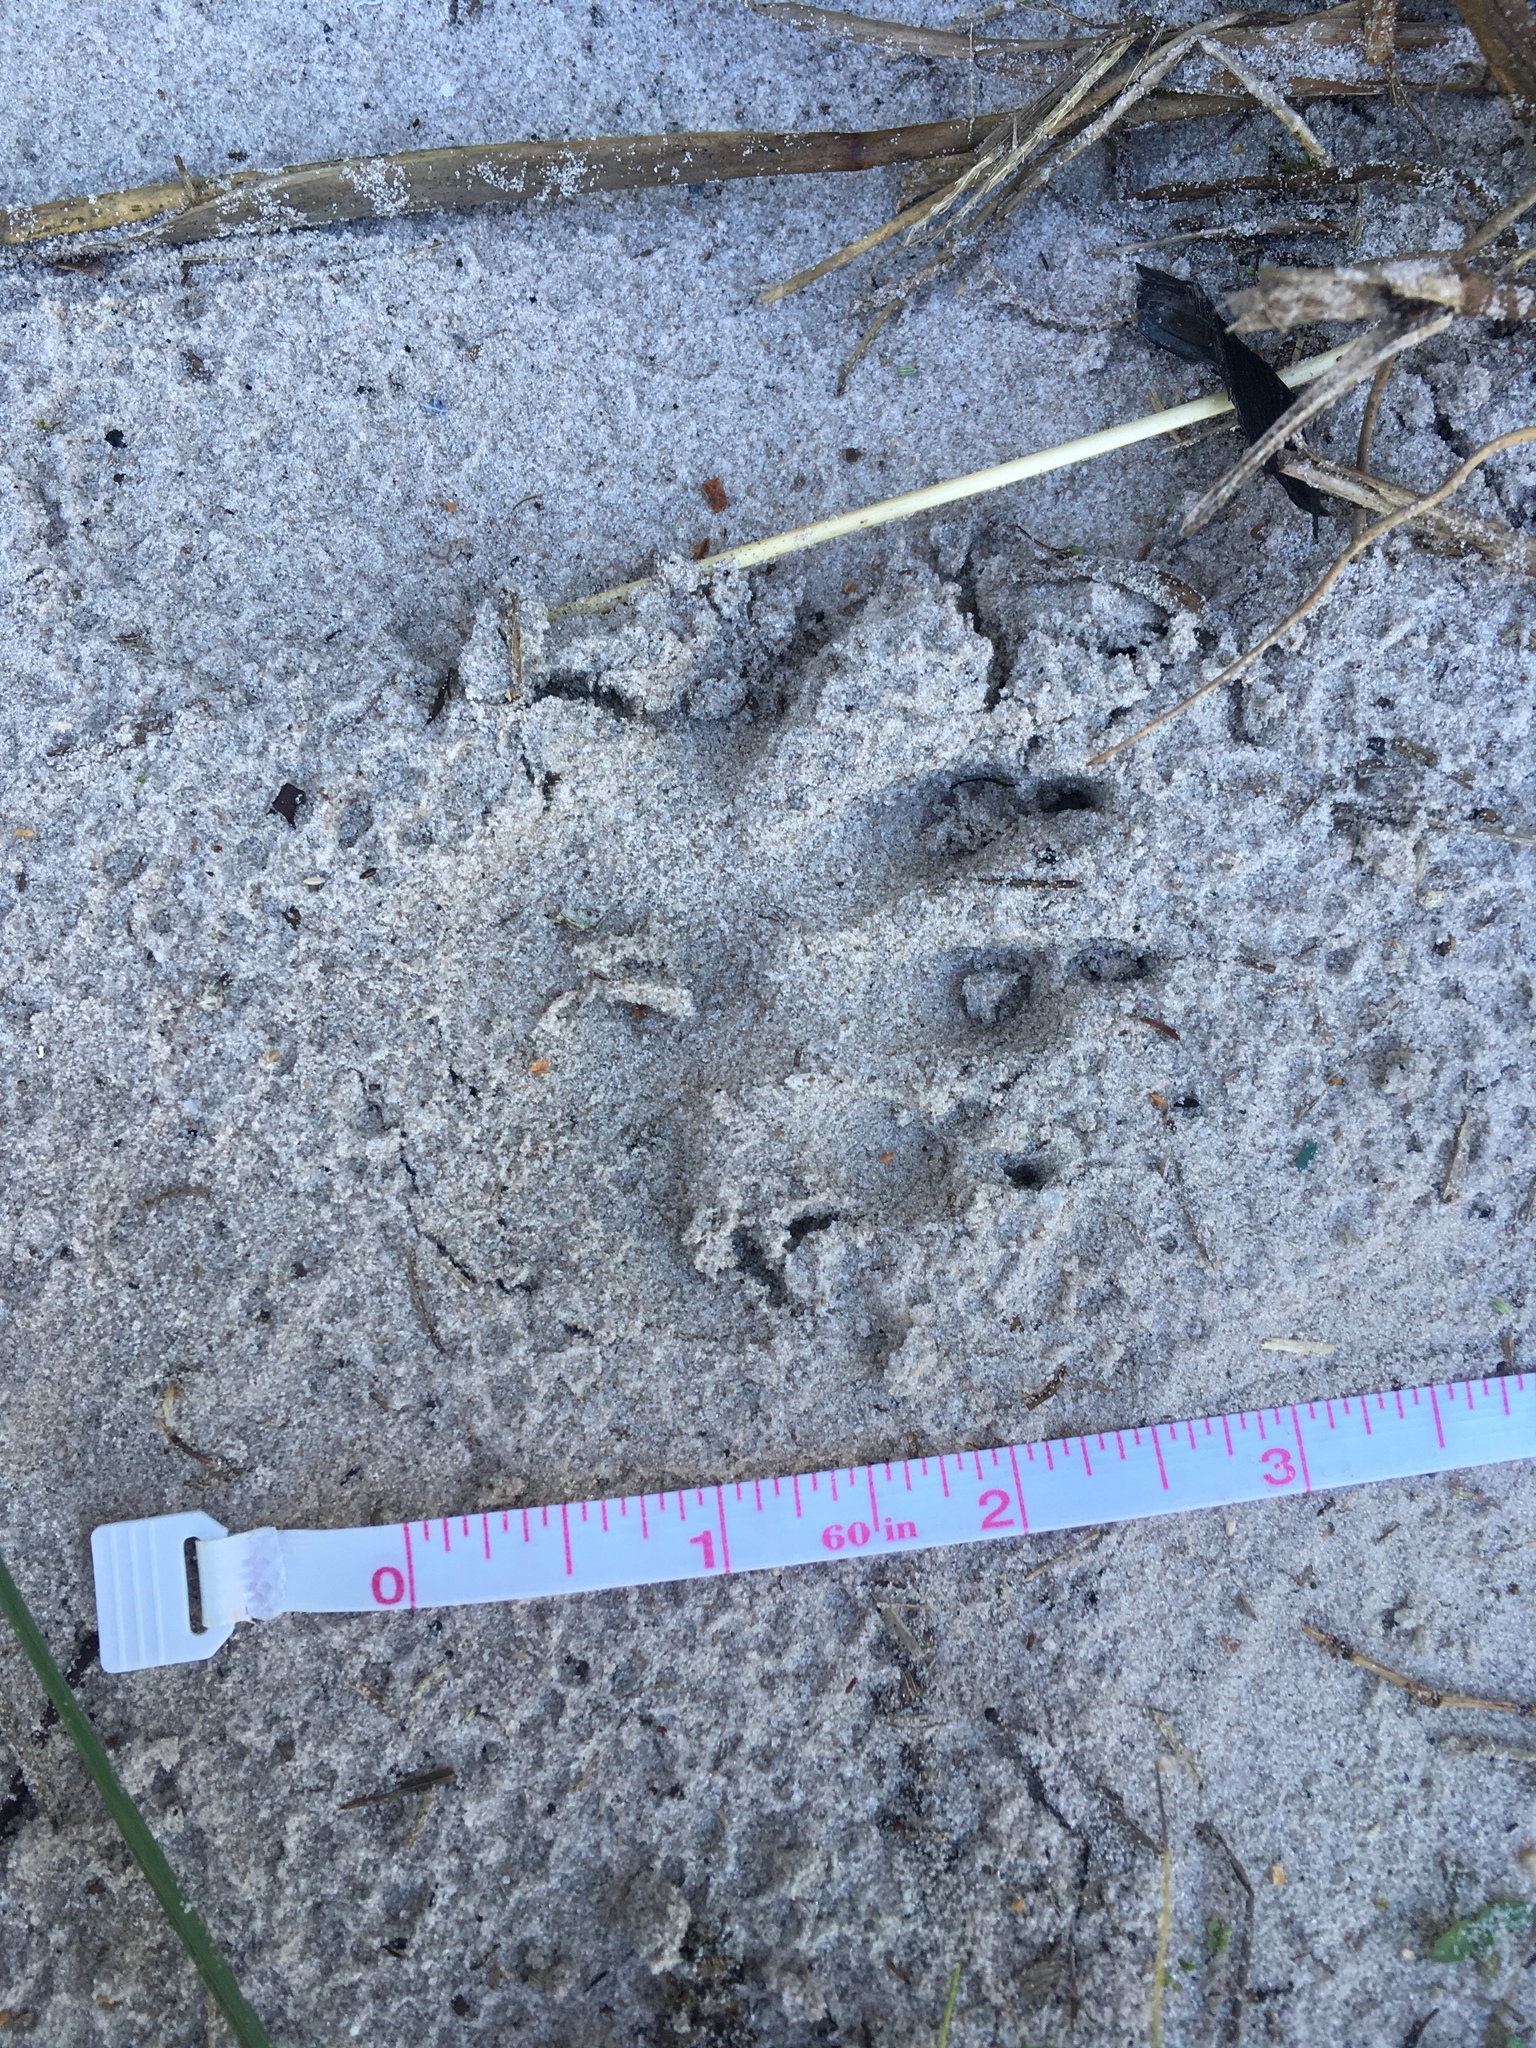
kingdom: Animalia
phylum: Chordata
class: Mammalia
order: Carnivora
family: Procyonidae
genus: Procyon
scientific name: Procyon lotor
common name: Raccoon
